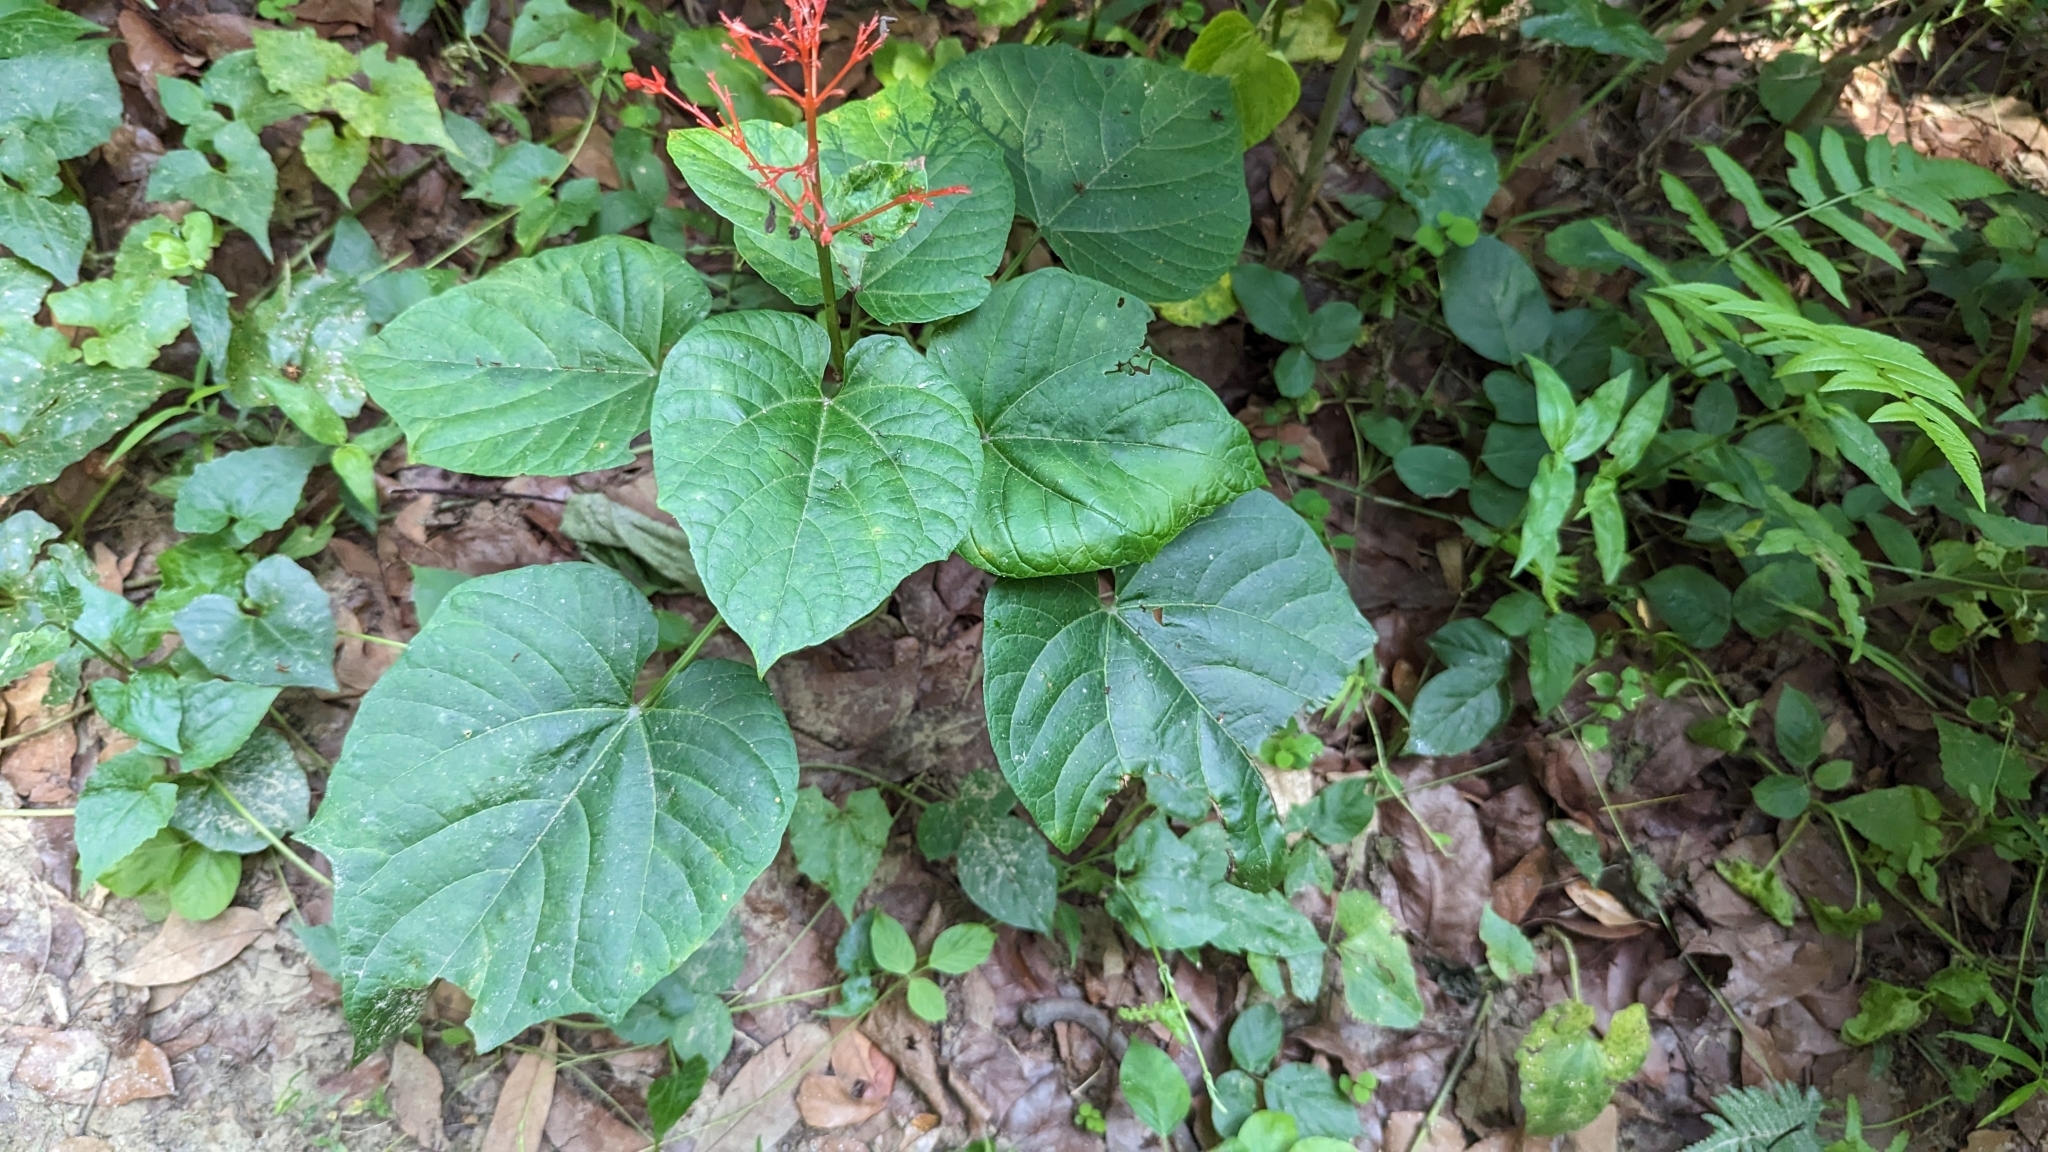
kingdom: Plantae
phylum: Tracheophyta
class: Magnoliopsida
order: Lamiales
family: Lamiaceae
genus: Clerodendrum
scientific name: Clerodendrum japonicum
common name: Japanese glorybower
